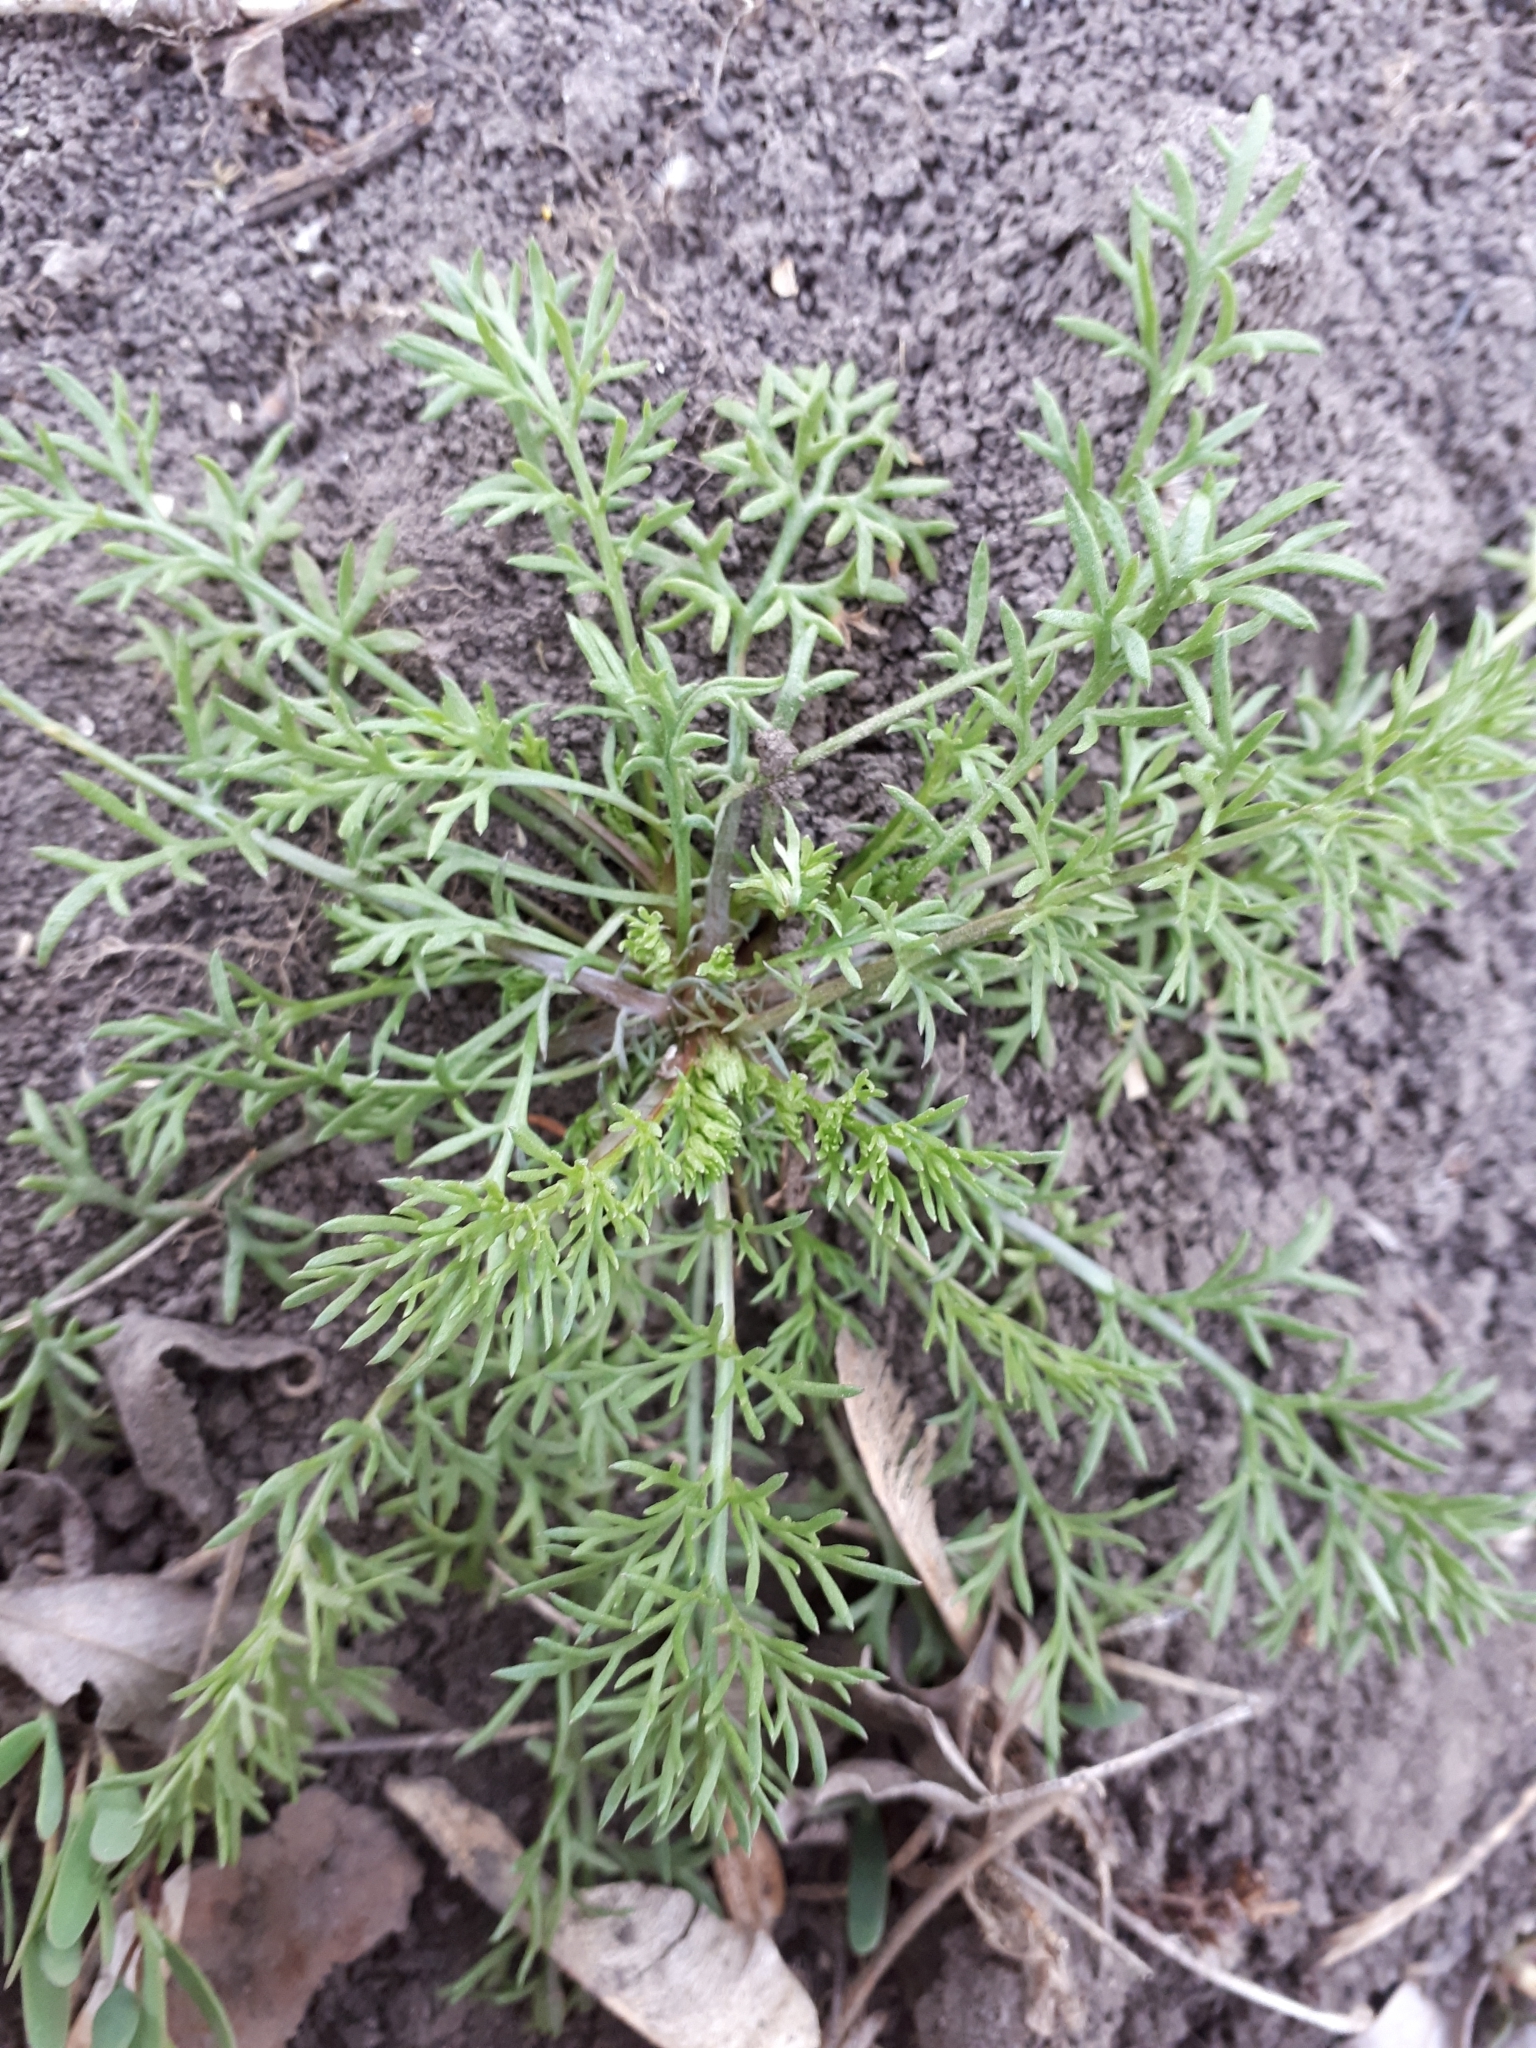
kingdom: Plantae
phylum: Tracheophyta
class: Magnoliopsida
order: Asterales
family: Asteraceae
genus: Tripleurospermum
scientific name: Tripleurospermum inodorum
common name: Scentless mayweed
